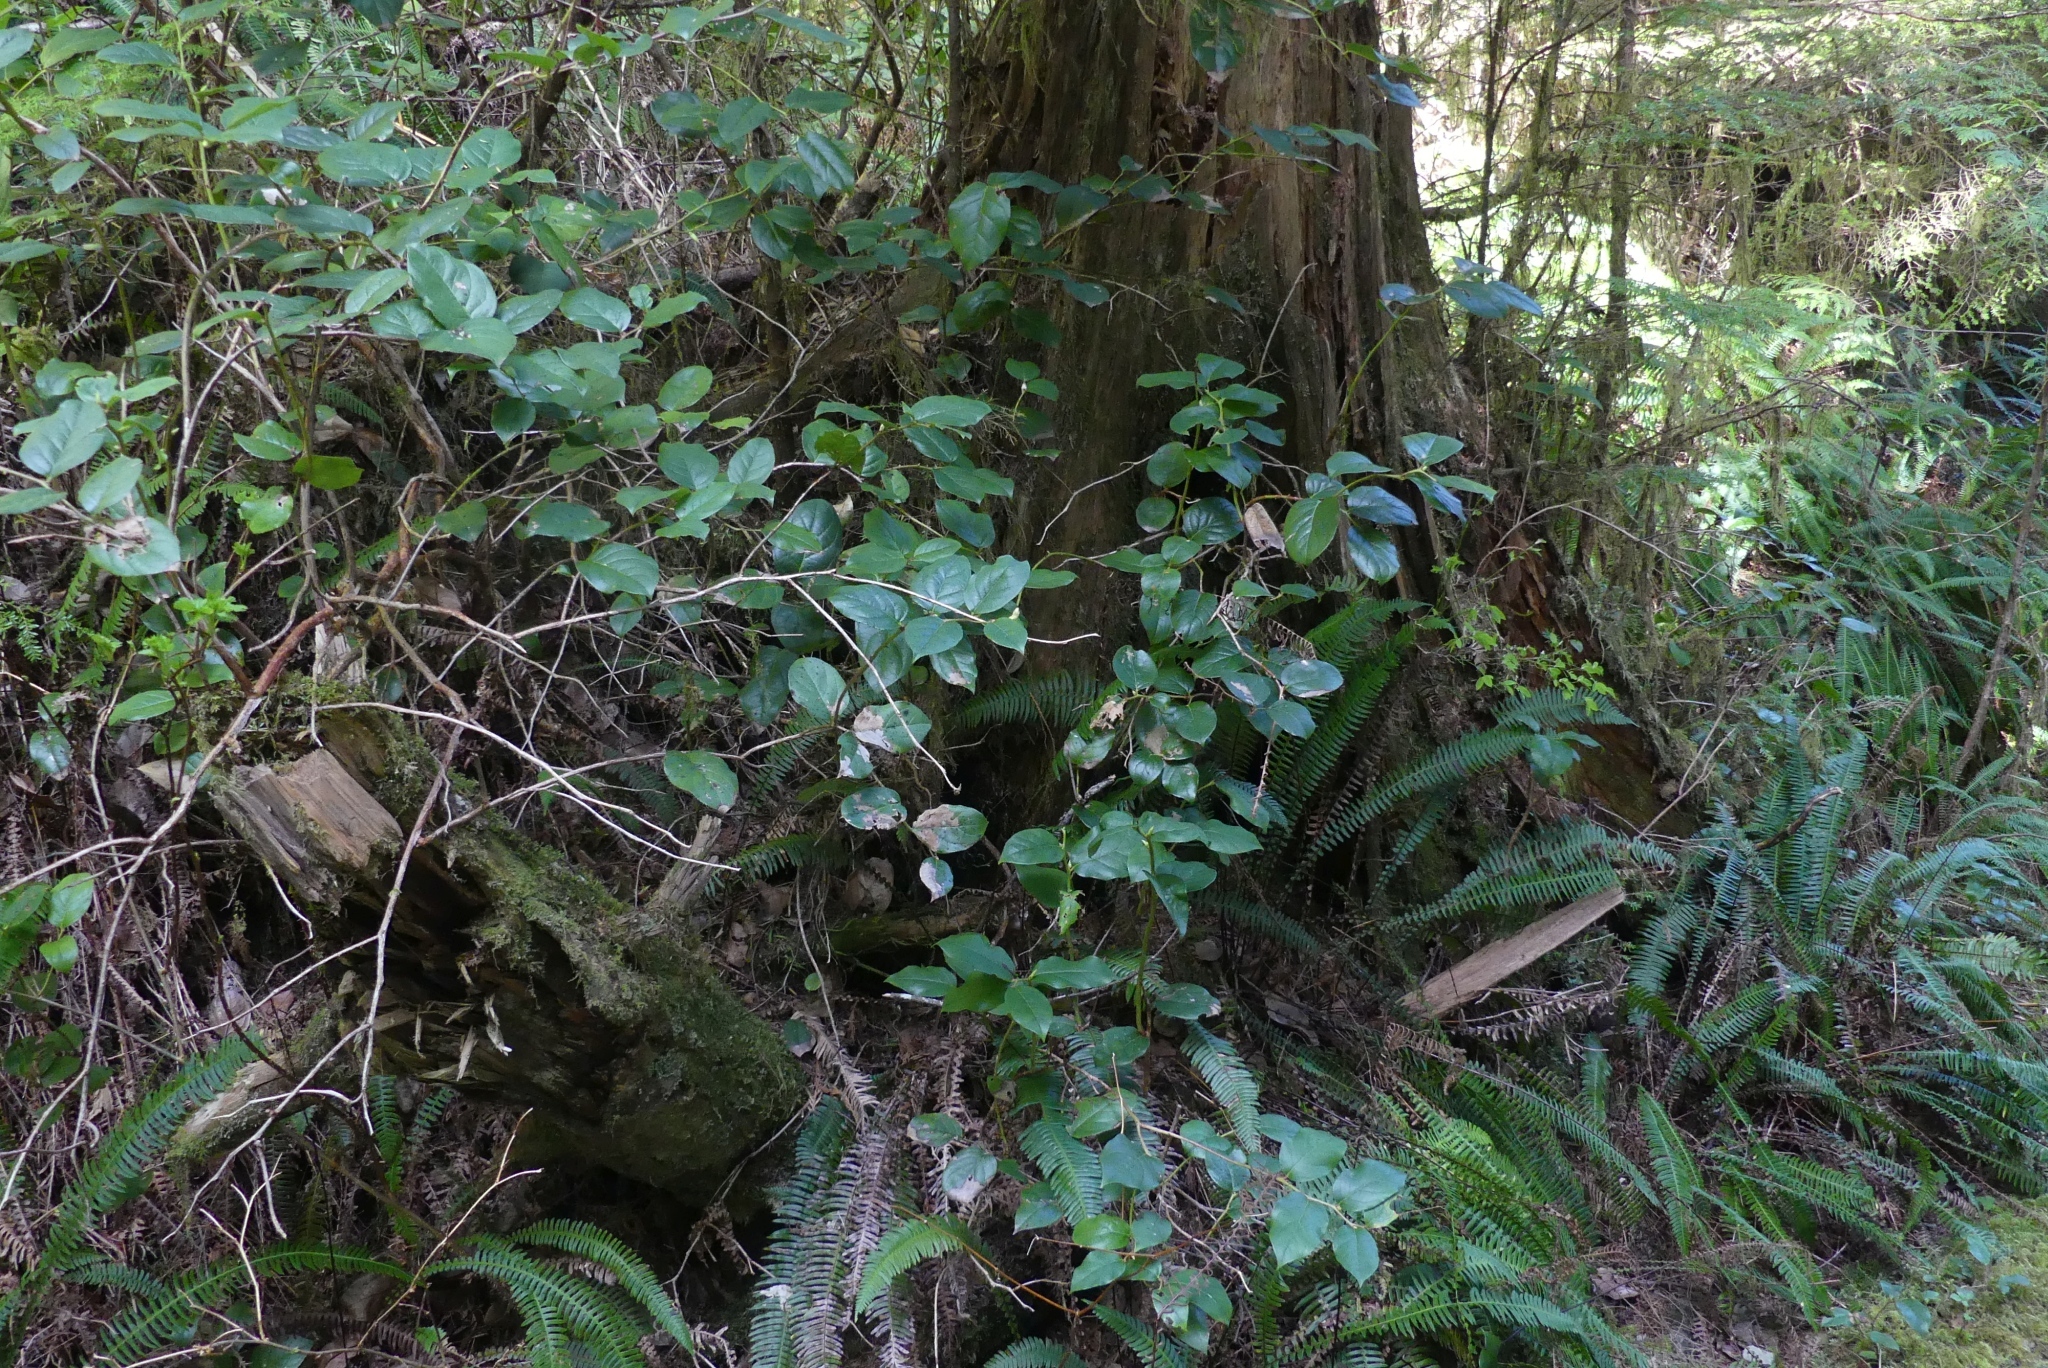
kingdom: Plantae
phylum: Tracheophyta
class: Magnoliopsida
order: Ericales
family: Ericaceae
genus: Gaultheria
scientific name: Gaultheria shallon
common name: Shallon
